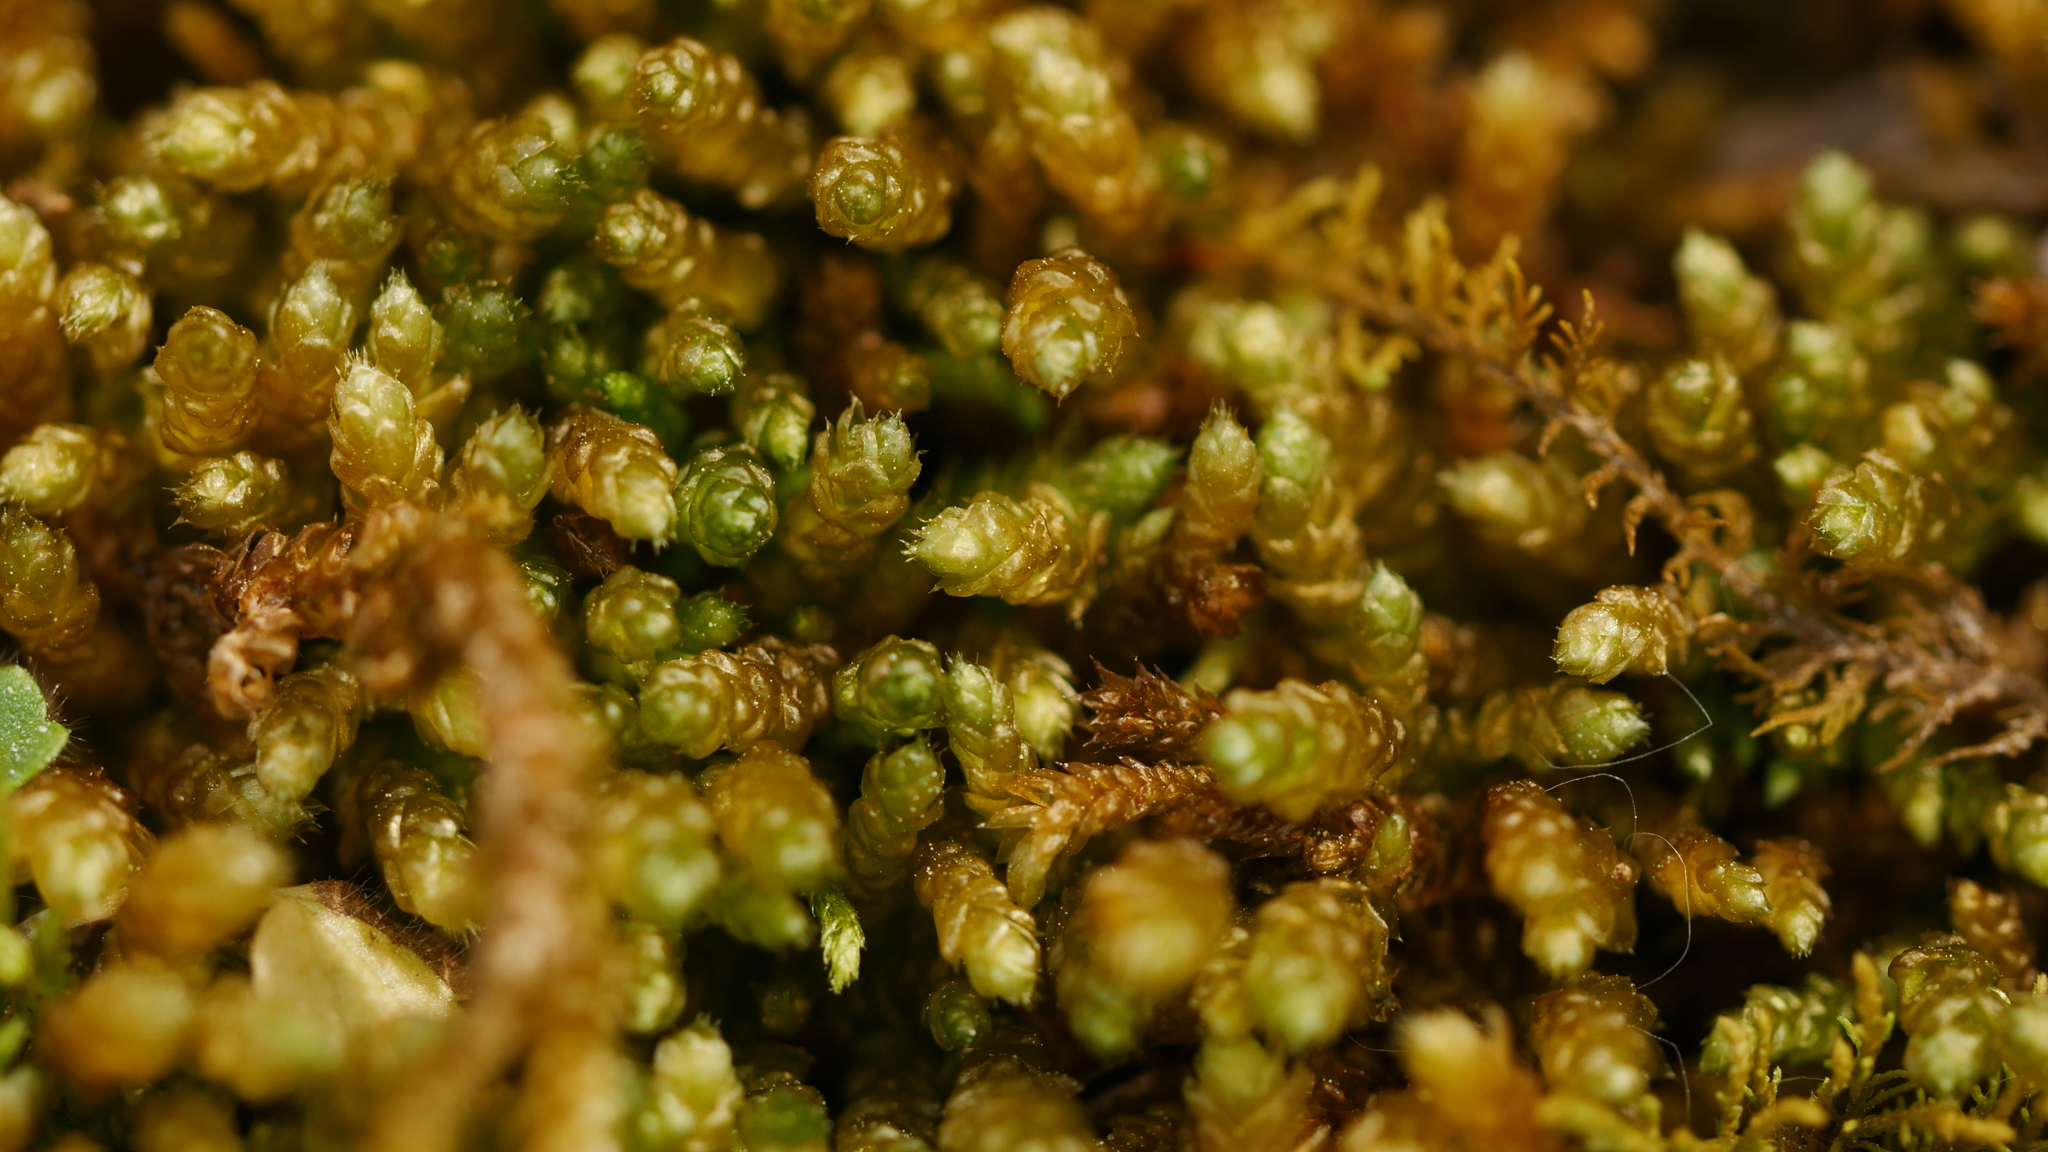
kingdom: Plantae
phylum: Bryophyta
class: Bryopsida
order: Hypnales
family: Brachytheciaceae
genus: Bryoandersonia
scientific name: Bryoandersonia illecebra
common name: Spoon-leaved moss
